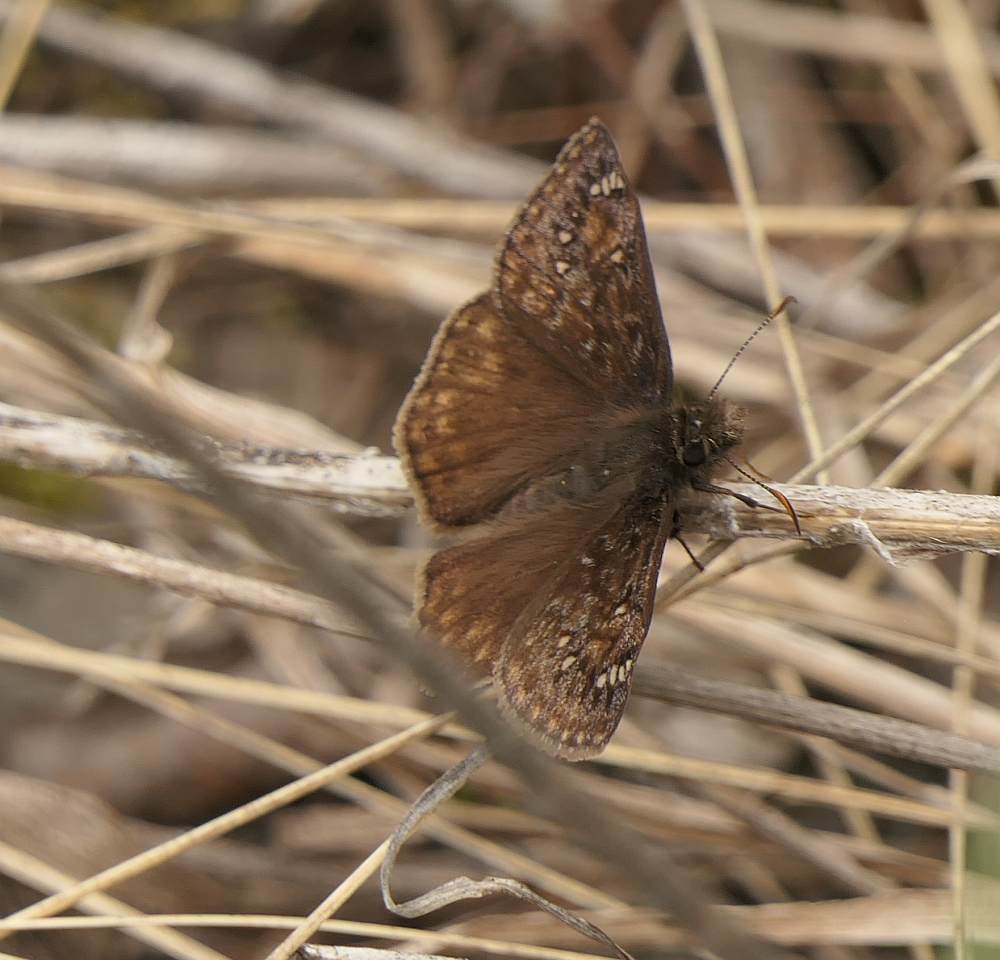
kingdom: Animalia
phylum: Arthropoda
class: Insecta
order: Lepidoptera
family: Hesperiidae
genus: Erynnis
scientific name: Erynnis juvenalis
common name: Juvenal's duskywing
